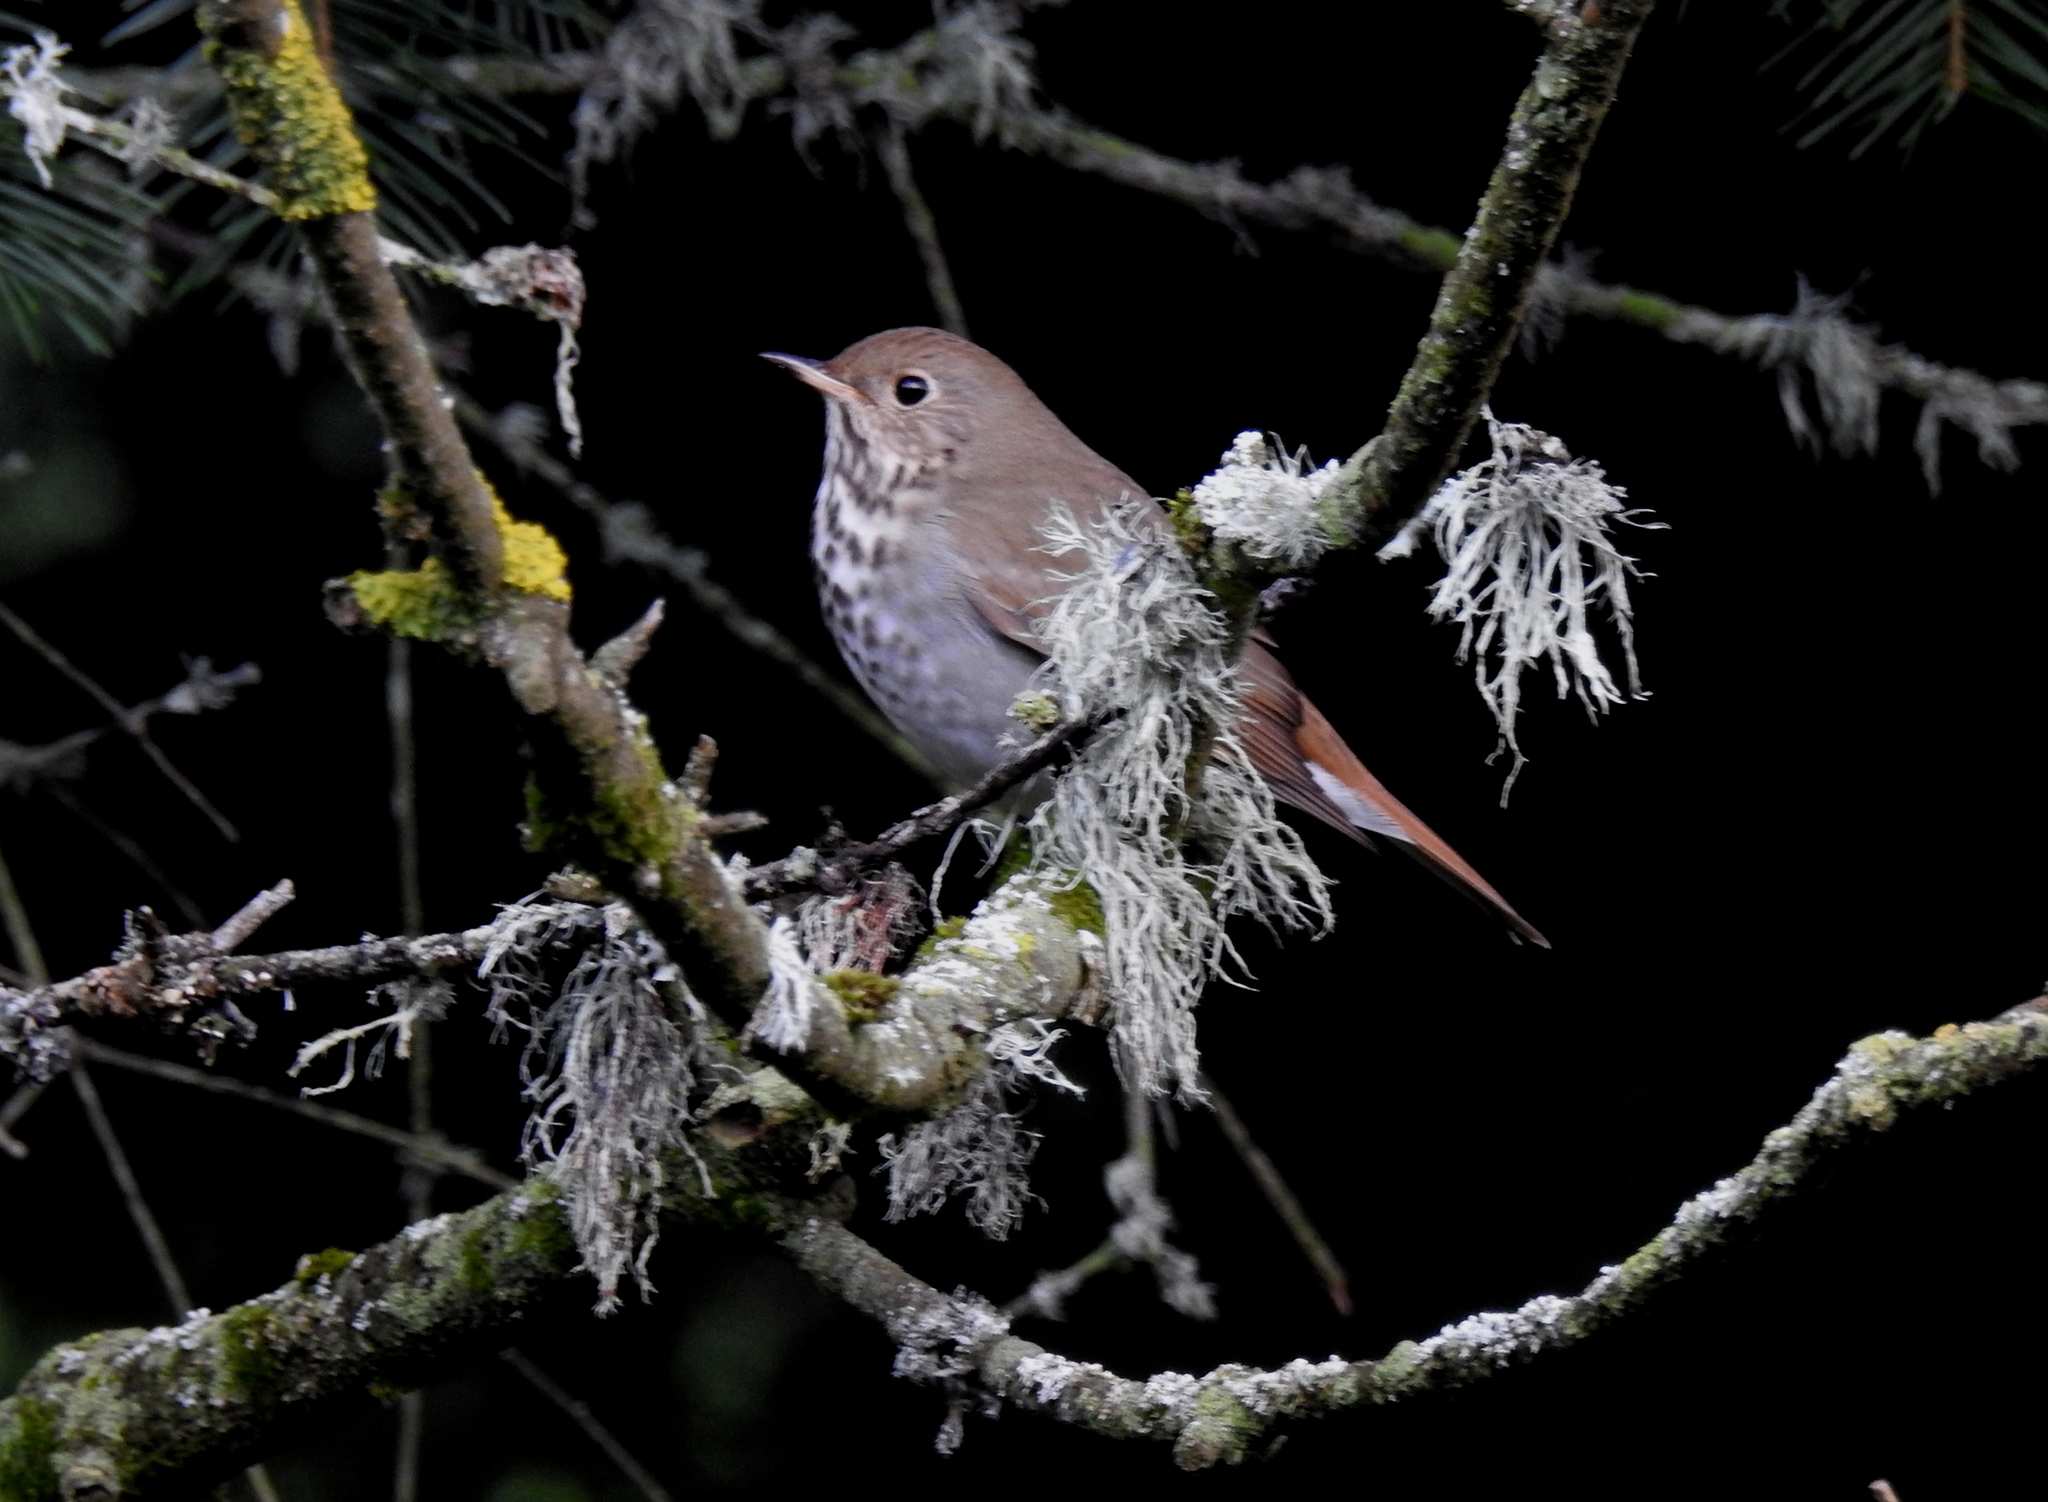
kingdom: Animalia
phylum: Chordata
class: Aves
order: Passeriformes
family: Turdidae
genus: Catharus
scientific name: Catharus guttatus
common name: Hermit thrush
